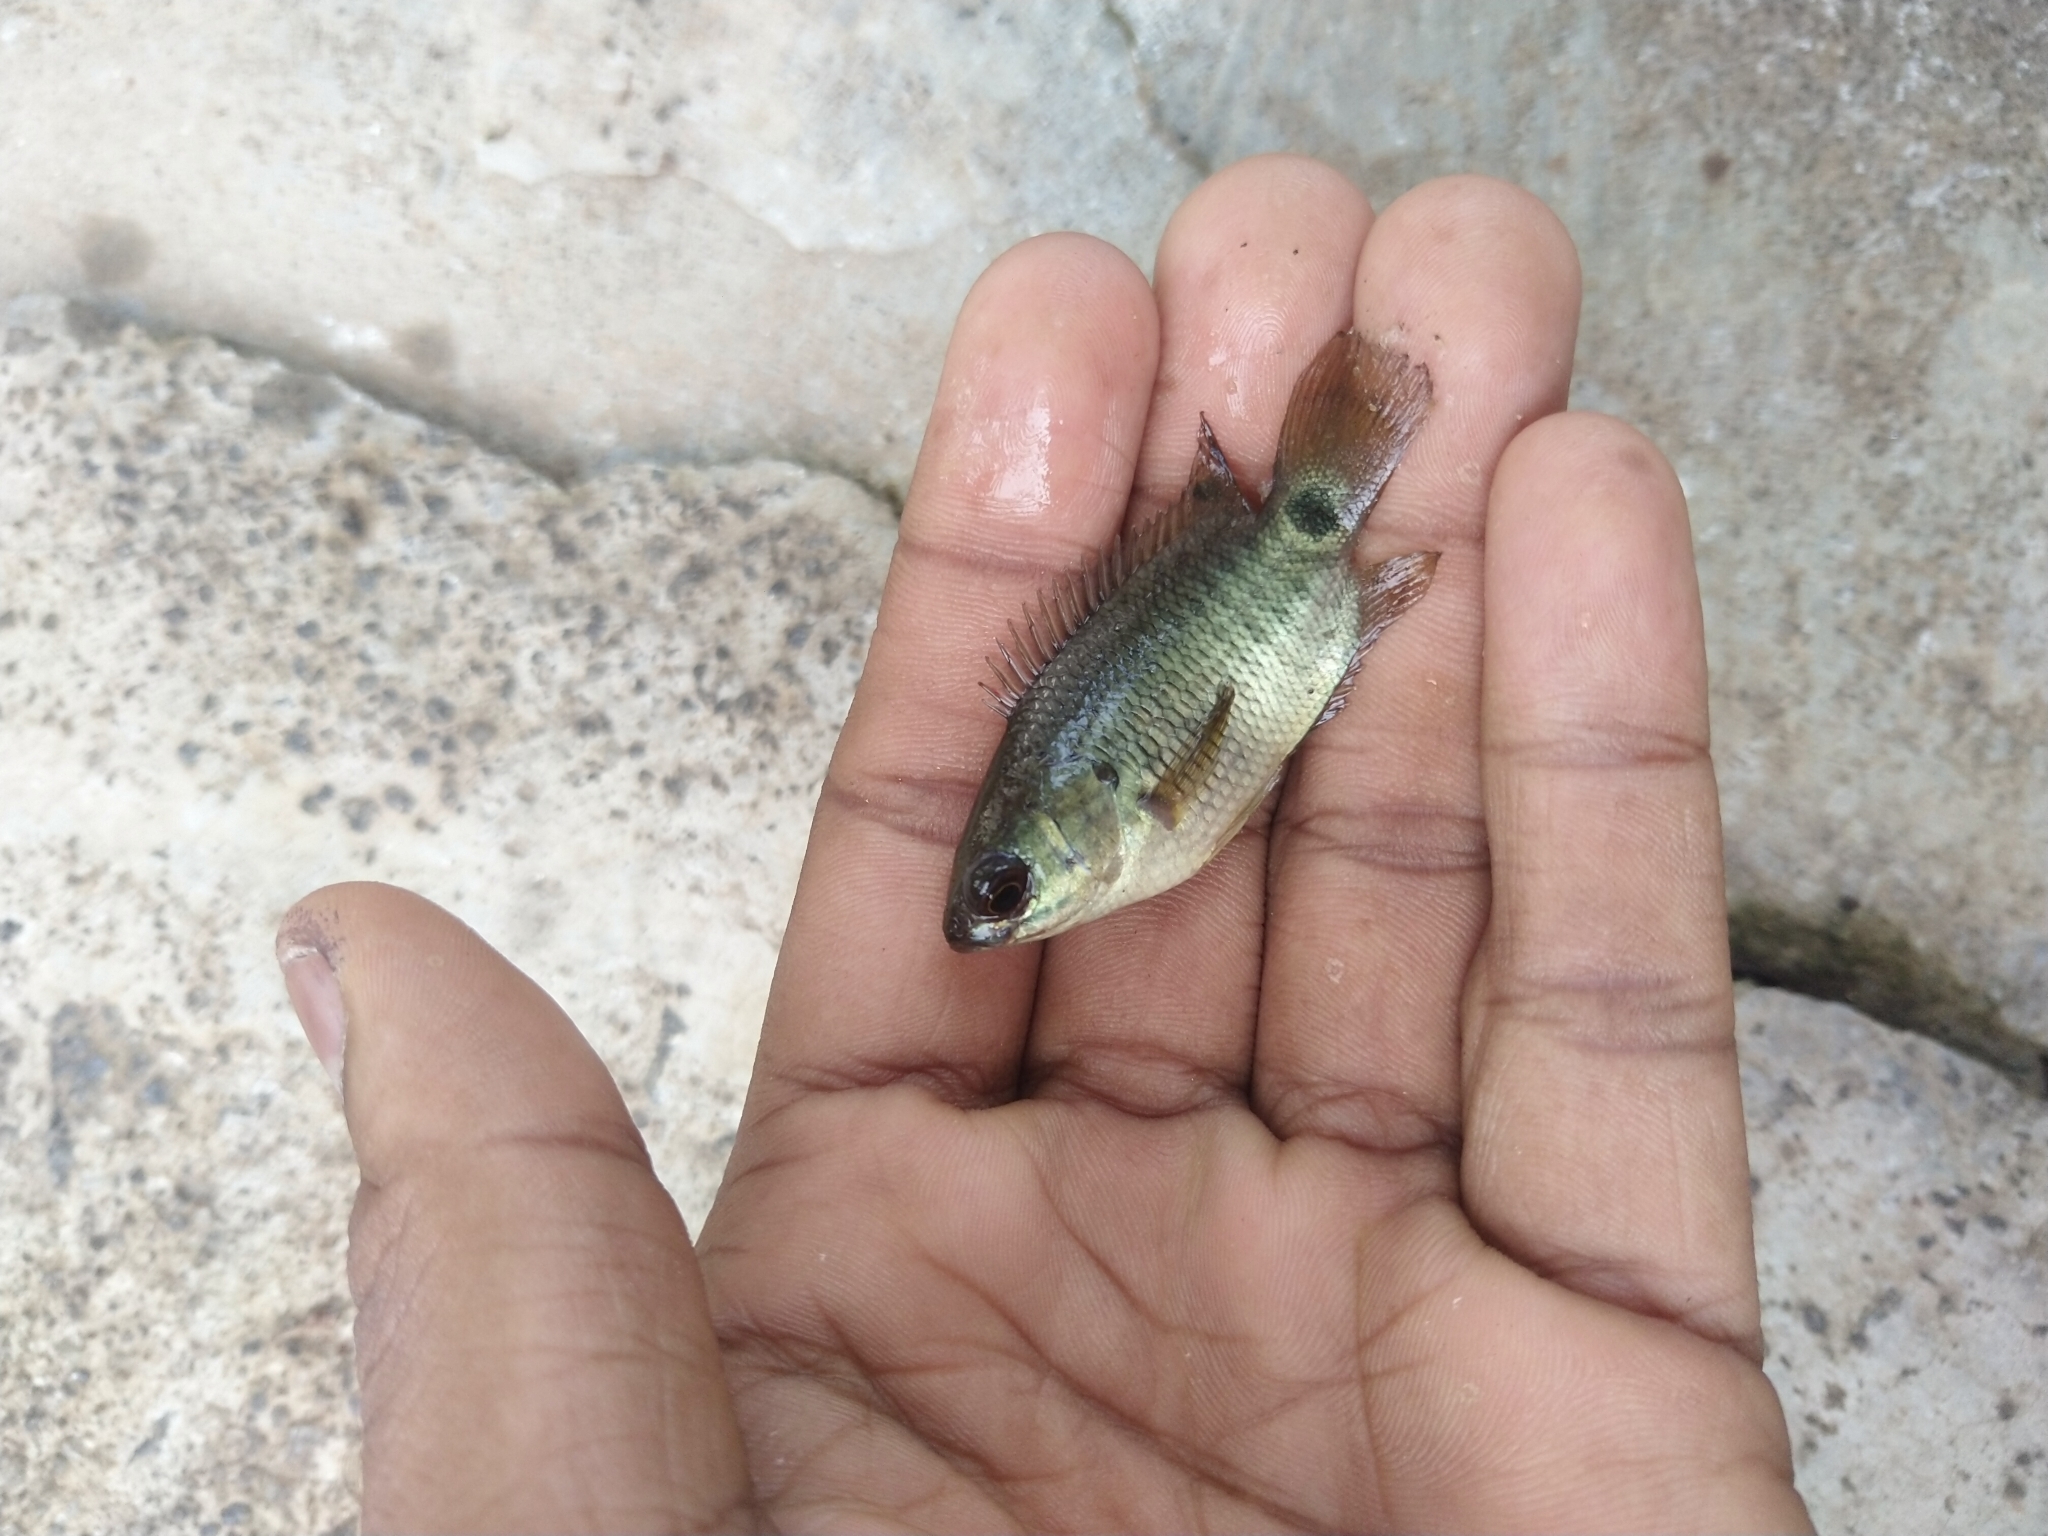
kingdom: Animalia
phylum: Chordata
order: Perciformes
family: Anabantidae
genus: Anabas
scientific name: Anabas testudineus
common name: Climbing perch
